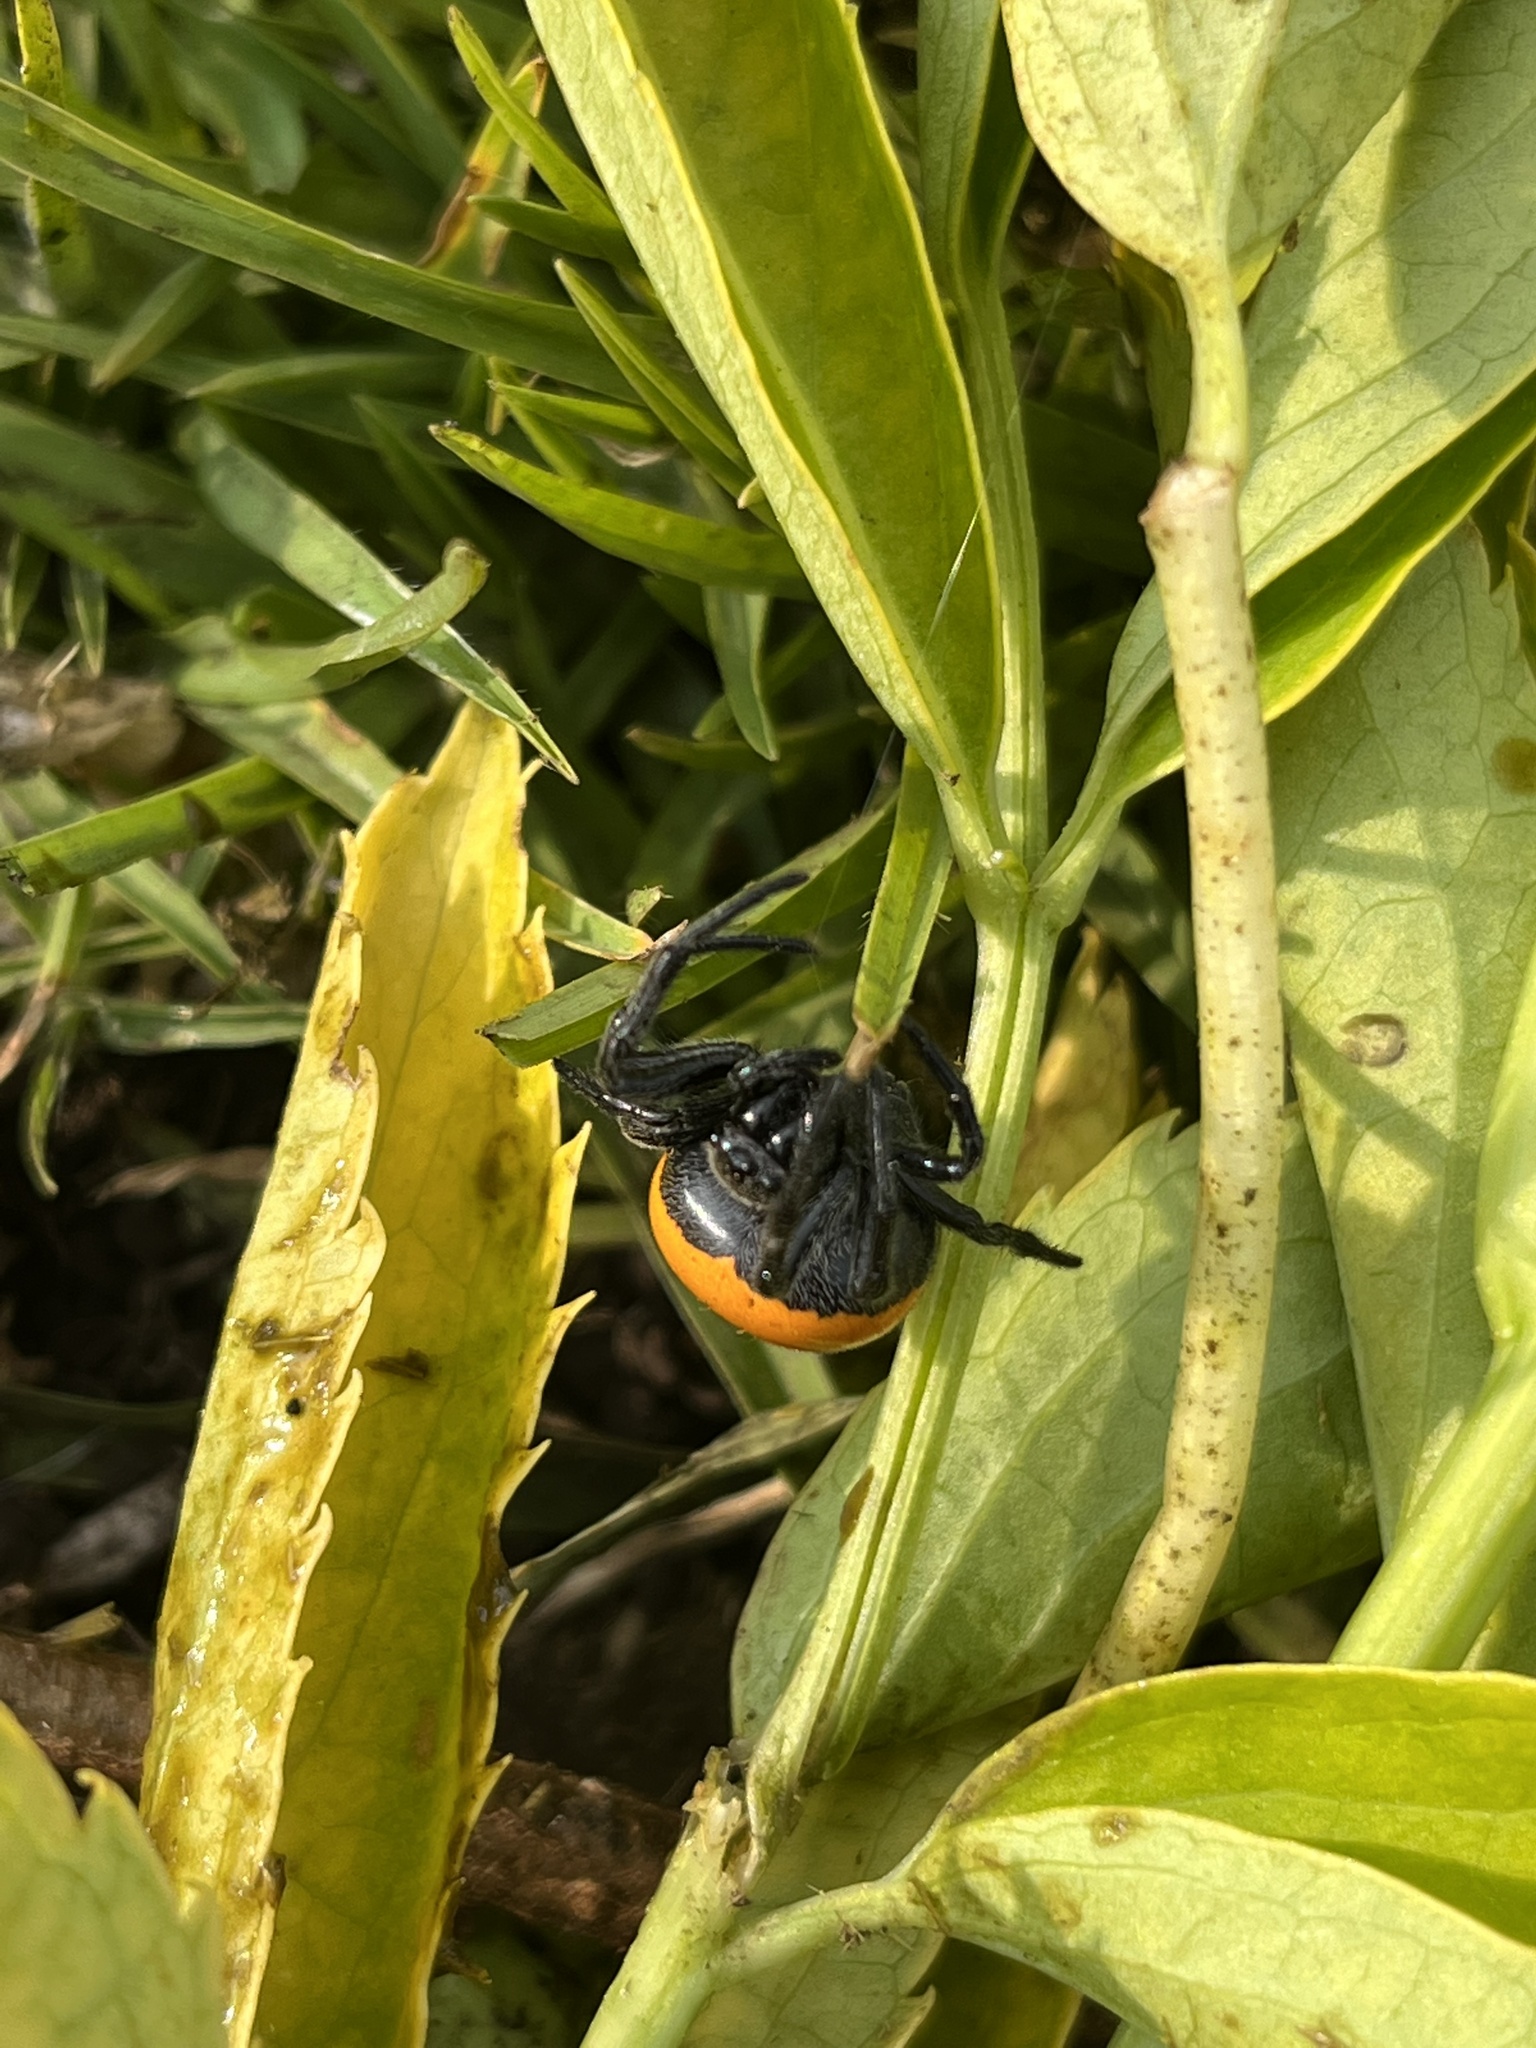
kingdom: Animalia
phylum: Arthropoda
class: Arachnida
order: Araneae
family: Araneidae
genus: Araneus
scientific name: Araneus sernai
